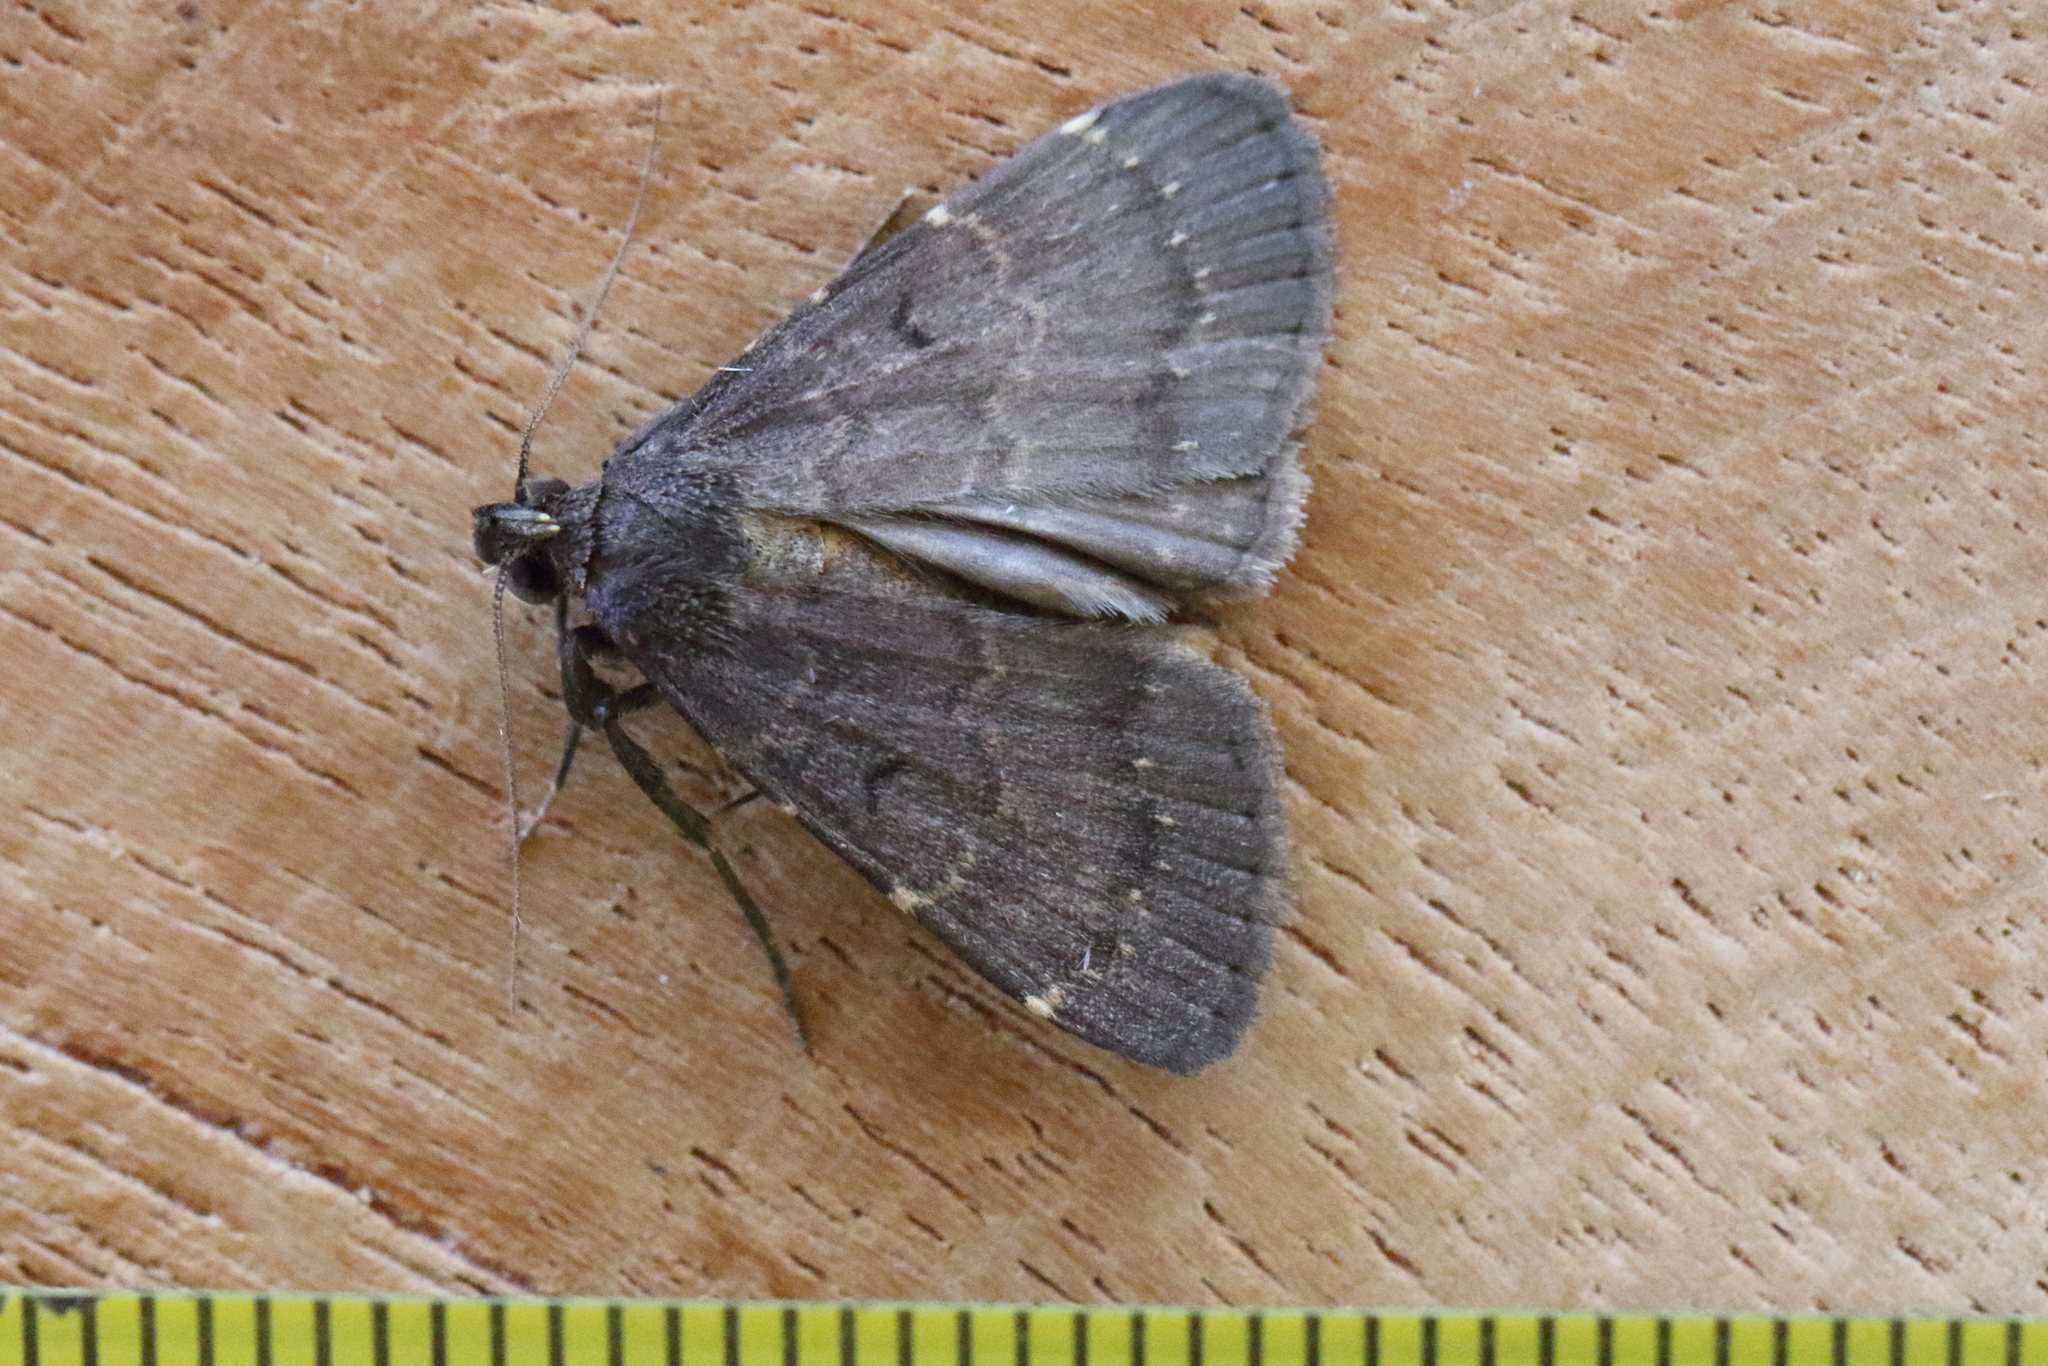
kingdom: Animalia
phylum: Arthropoda
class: Insecta
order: Lepidoptera
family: Erebidae
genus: Hydrillodes
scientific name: Hydrillodes funestalis
